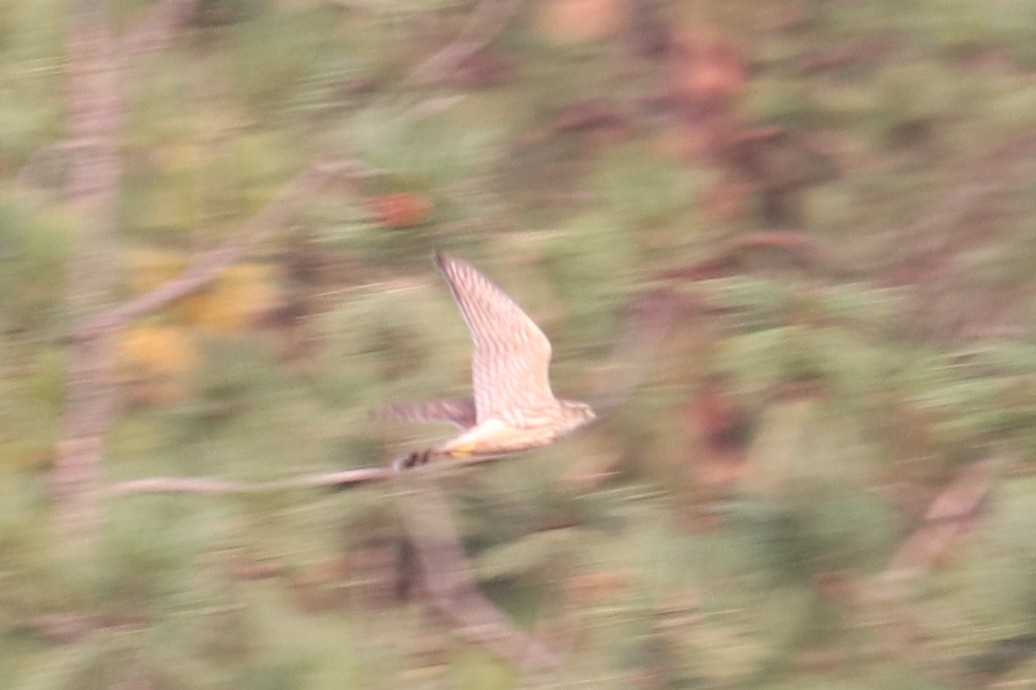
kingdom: Animalia
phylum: Chordata
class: Aves
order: Falconiformes
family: Falconidae
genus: Falco
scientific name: Falco columbarius
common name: Merlin
